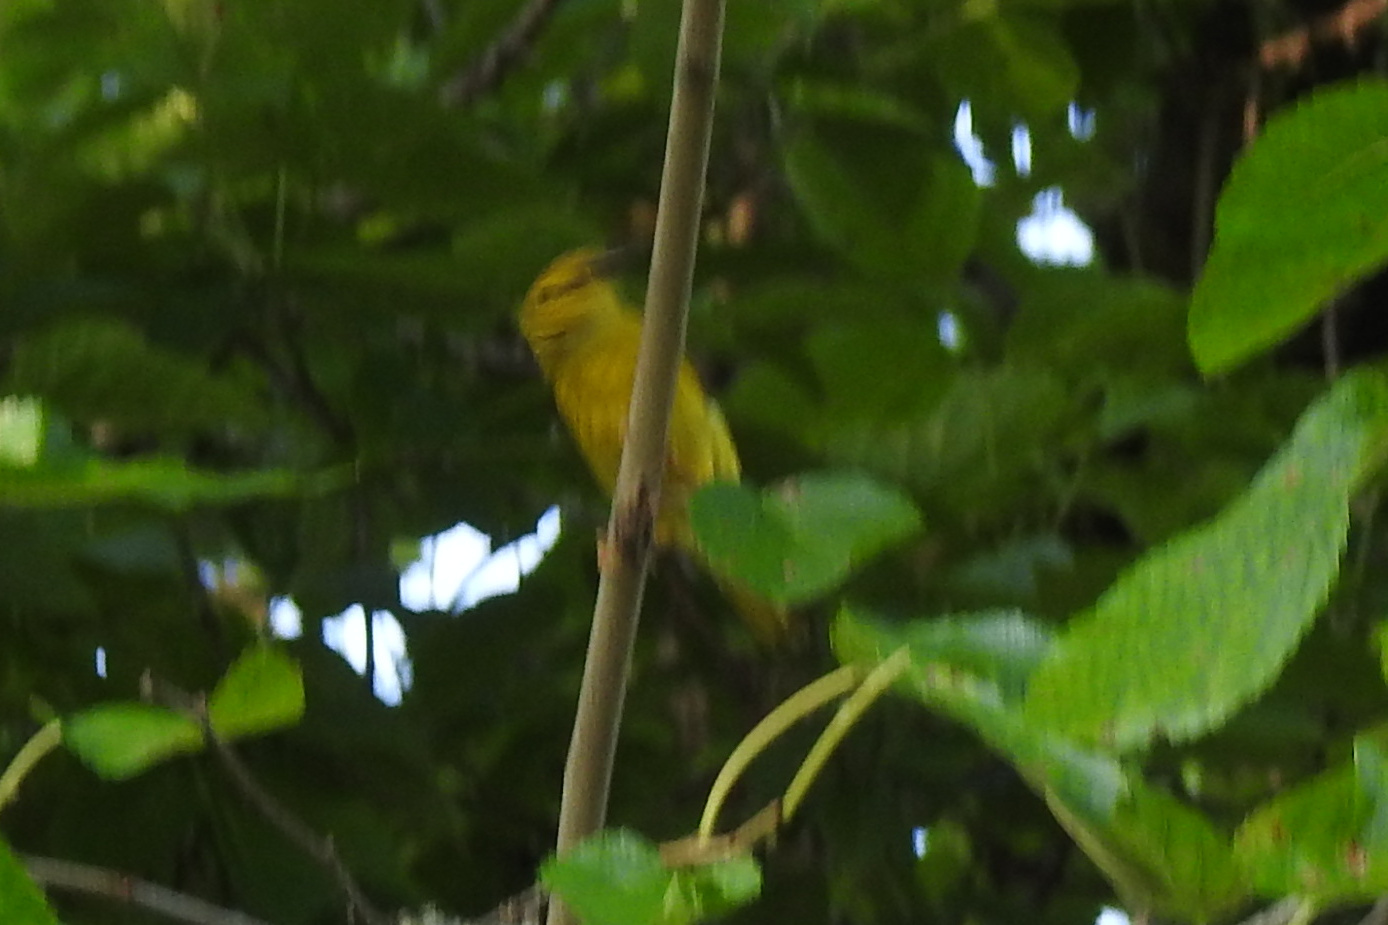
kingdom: Animalia
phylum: Chordata
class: Aves
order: Passeriformes
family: Parulidae
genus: Setophaga
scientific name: Setophaga petechia
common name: Yellow warbler
